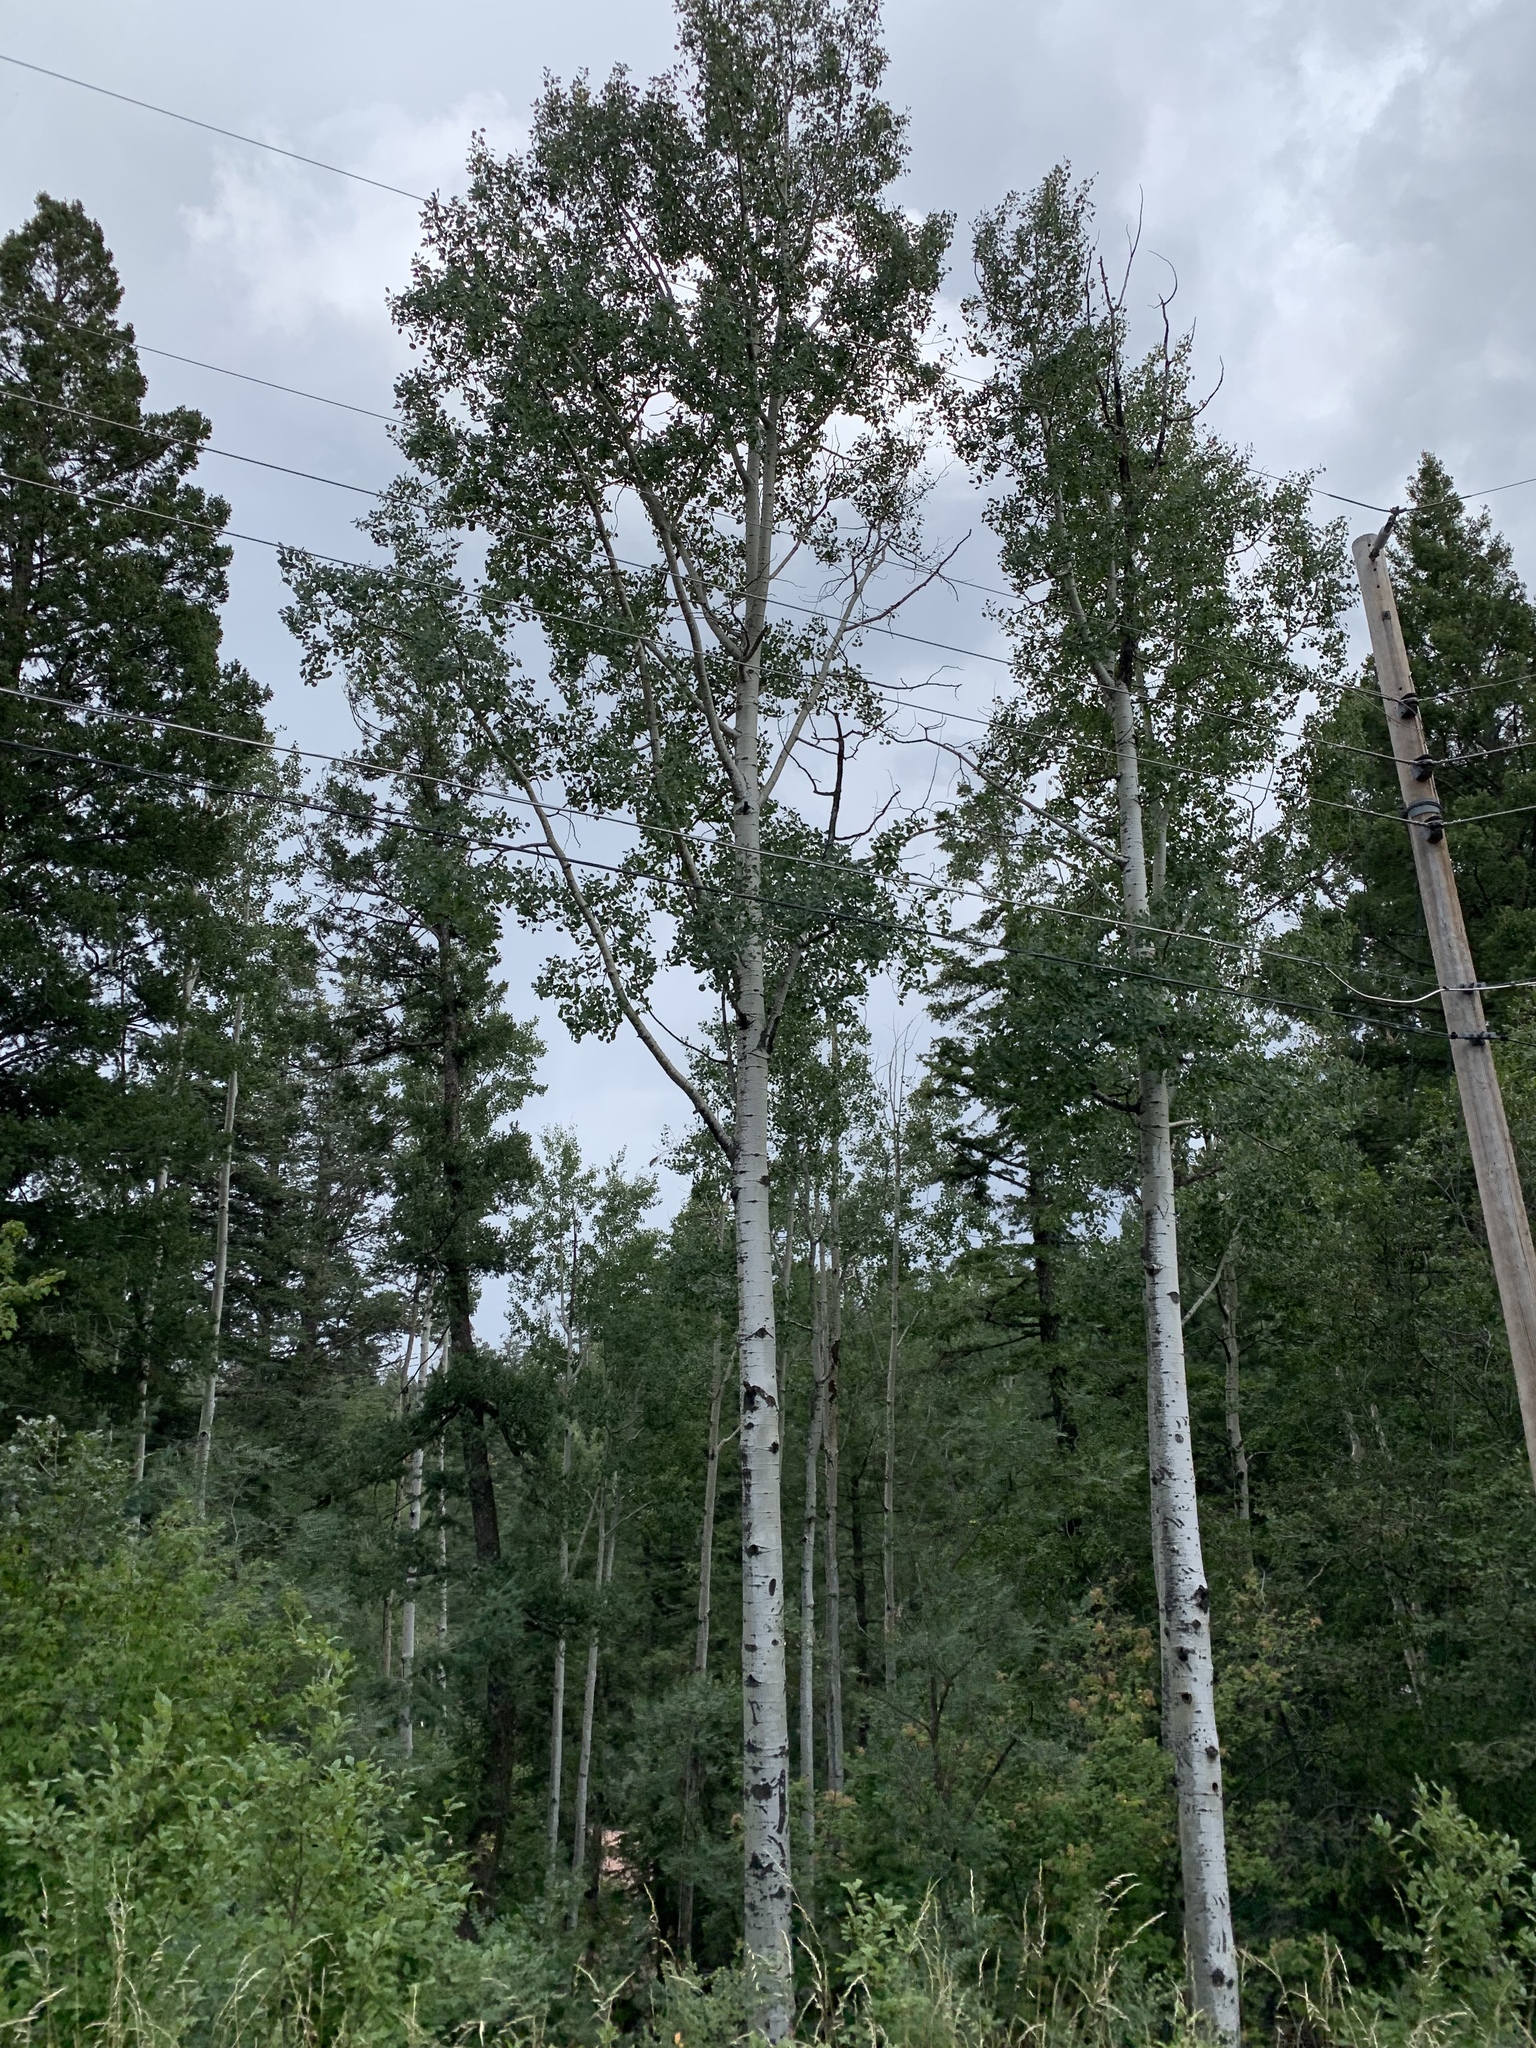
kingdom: Plantae
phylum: Tracheophyta
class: Magnoliopsida
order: Malpighiales
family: Salicaceae
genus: Populus
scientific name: Populus tremuloides
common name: Quaking aspen
